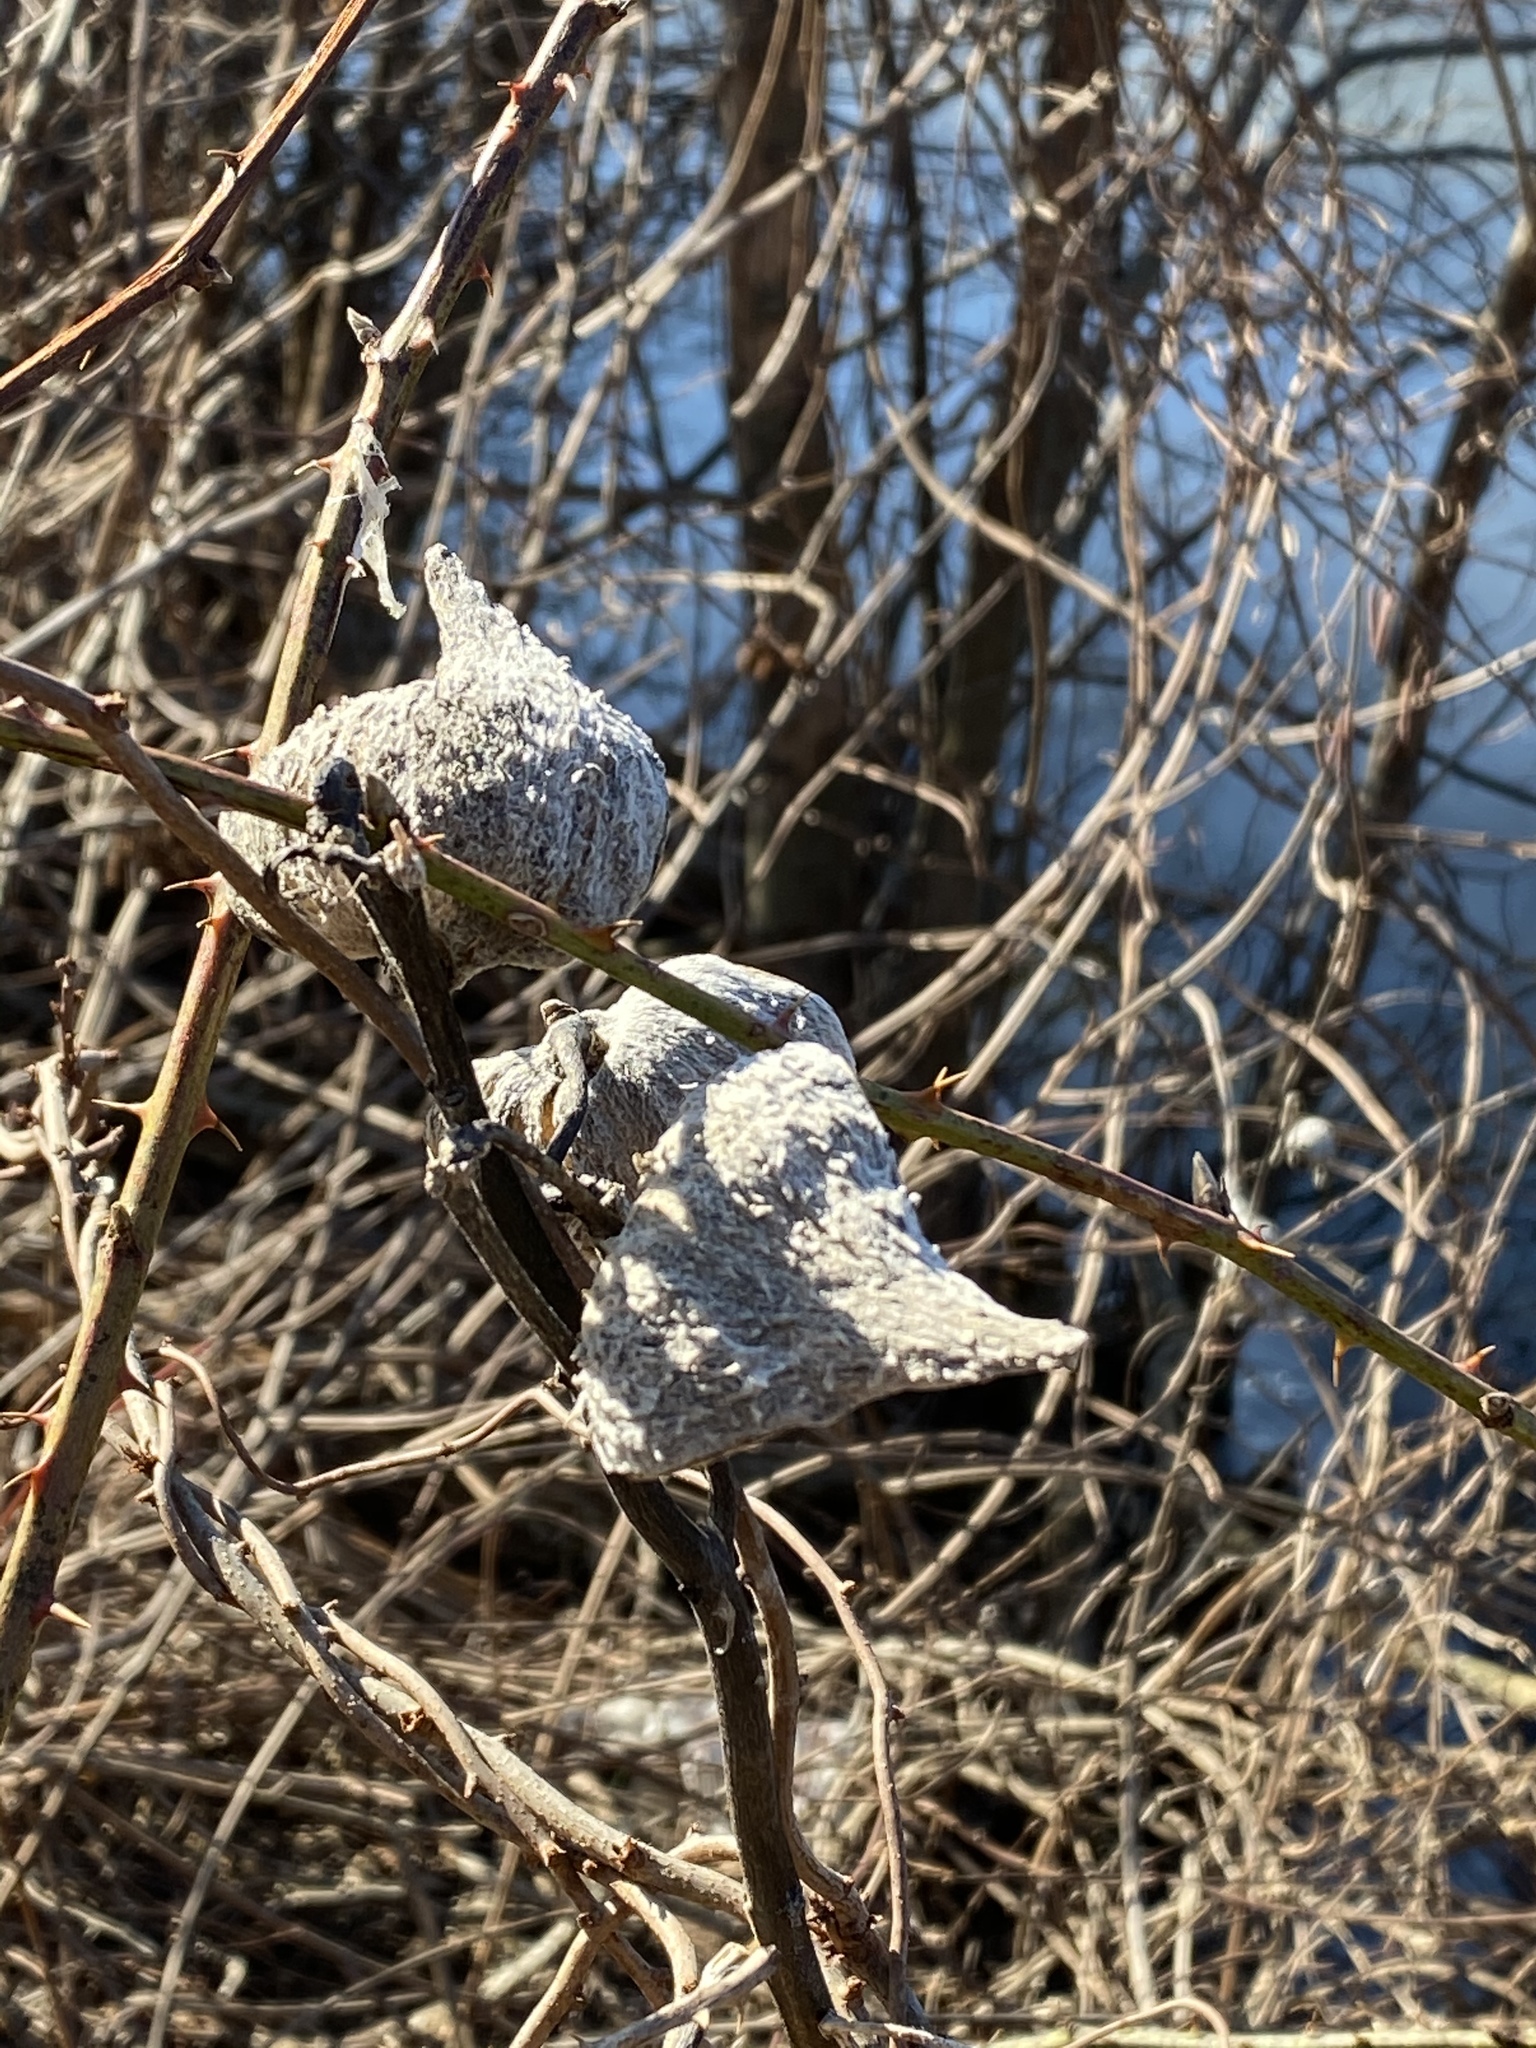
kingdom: Plantae
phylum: Tracheophyta
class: Magnoliopsida
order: Gentianales
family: Apocynaceae
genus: Asclepias
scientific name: Asclepias syriaca
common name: Common milkweed
